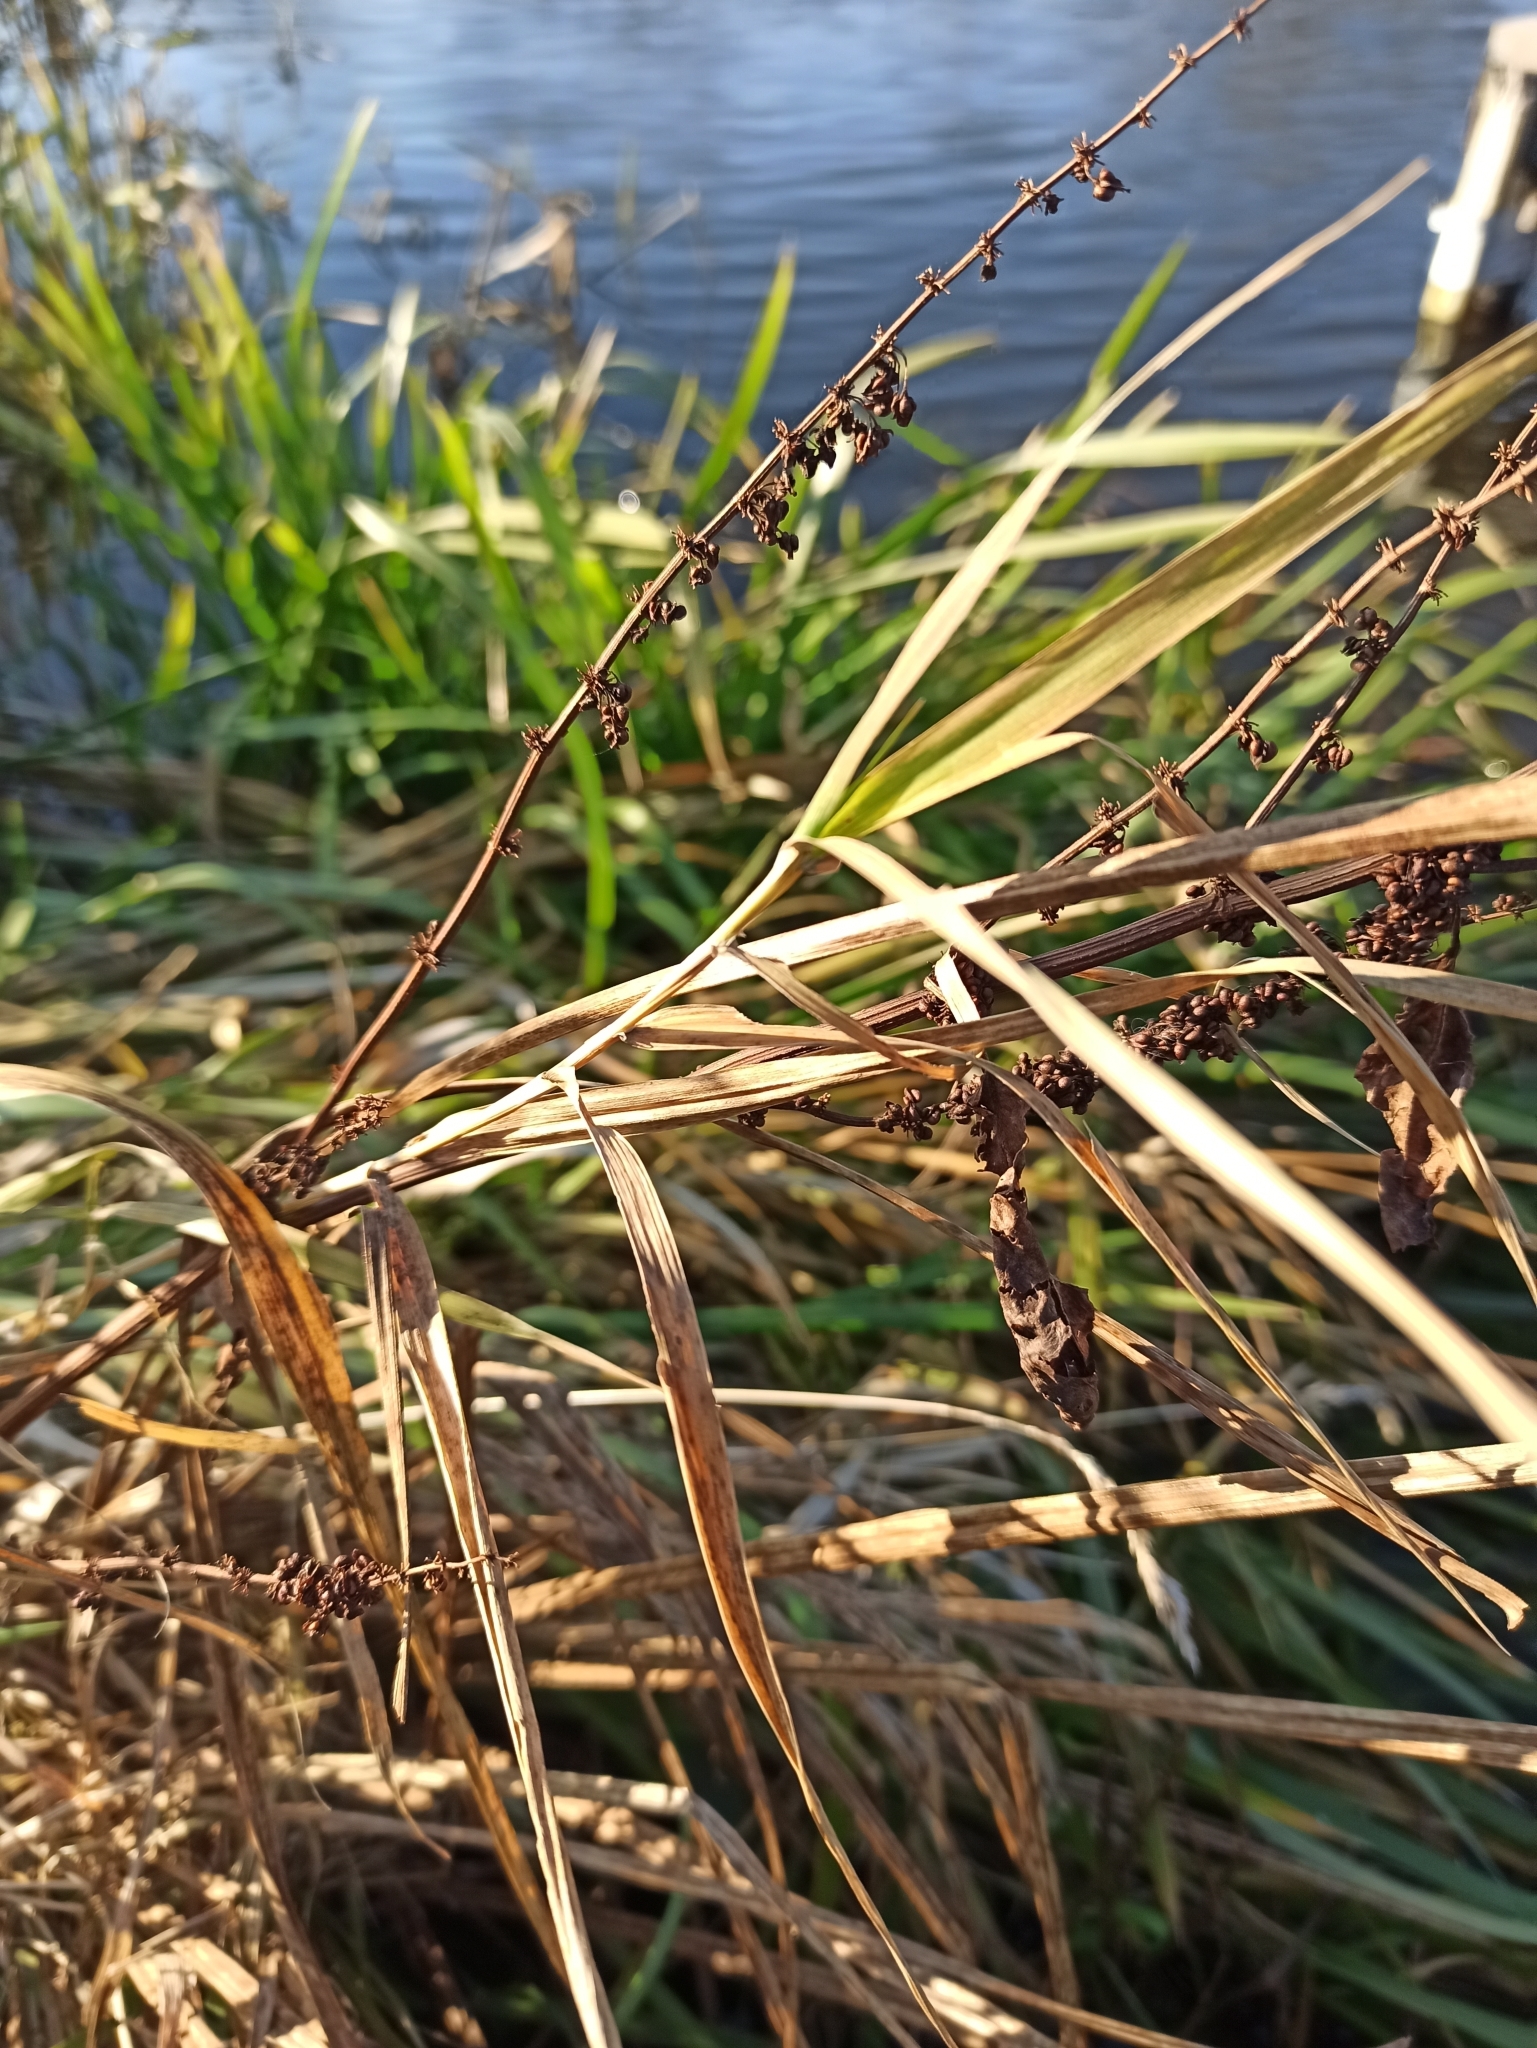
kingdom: Plantae
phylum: Tracheophyta
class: Magnoliopsida
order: Caryophyllales
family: Polygonaceae
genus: Rumex
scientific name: Rumex obtusifolius
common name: Bitter dock
